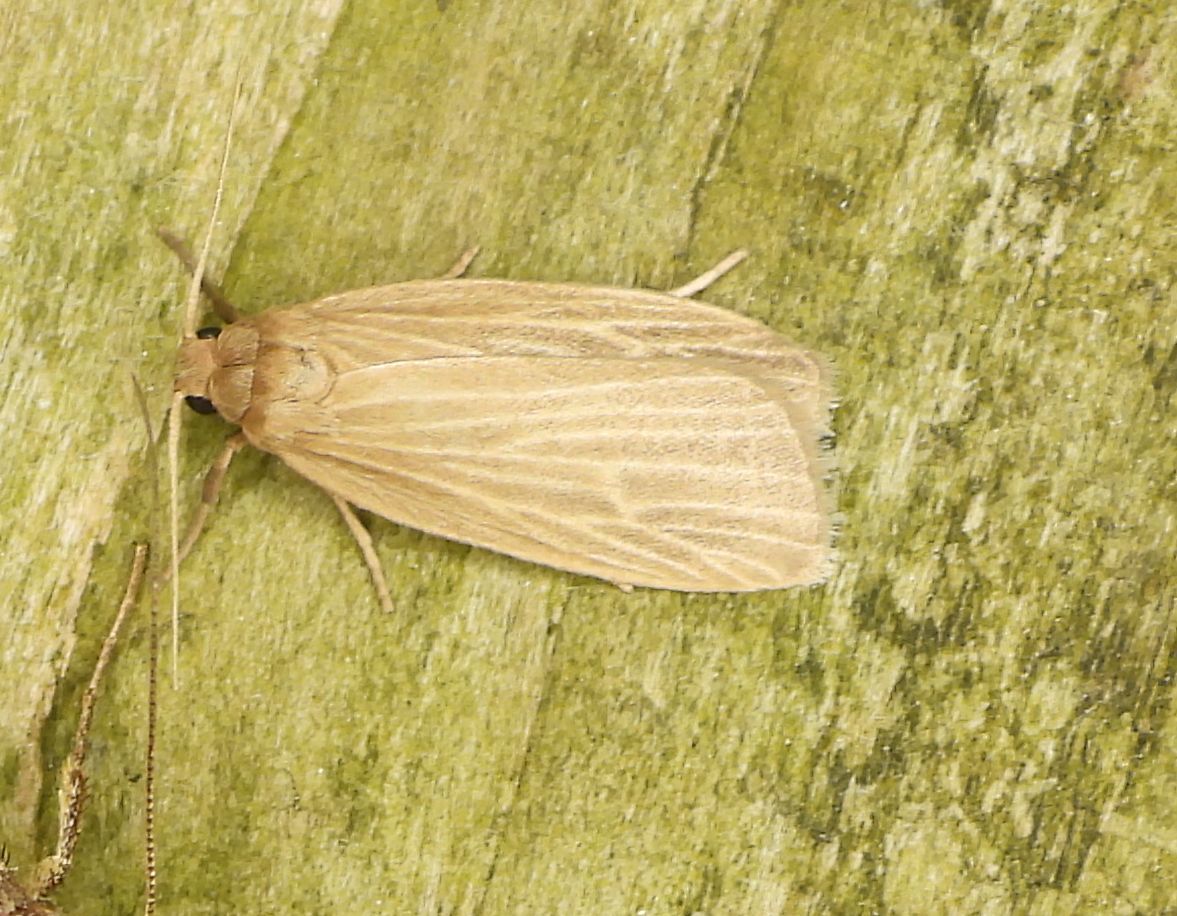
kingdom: Animalia
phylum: Arthropoda
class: Insecta
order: Lepidoptera
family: Erebidae
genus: Crambidia
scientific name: Crambidia pallida
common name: Pale lichen moth
